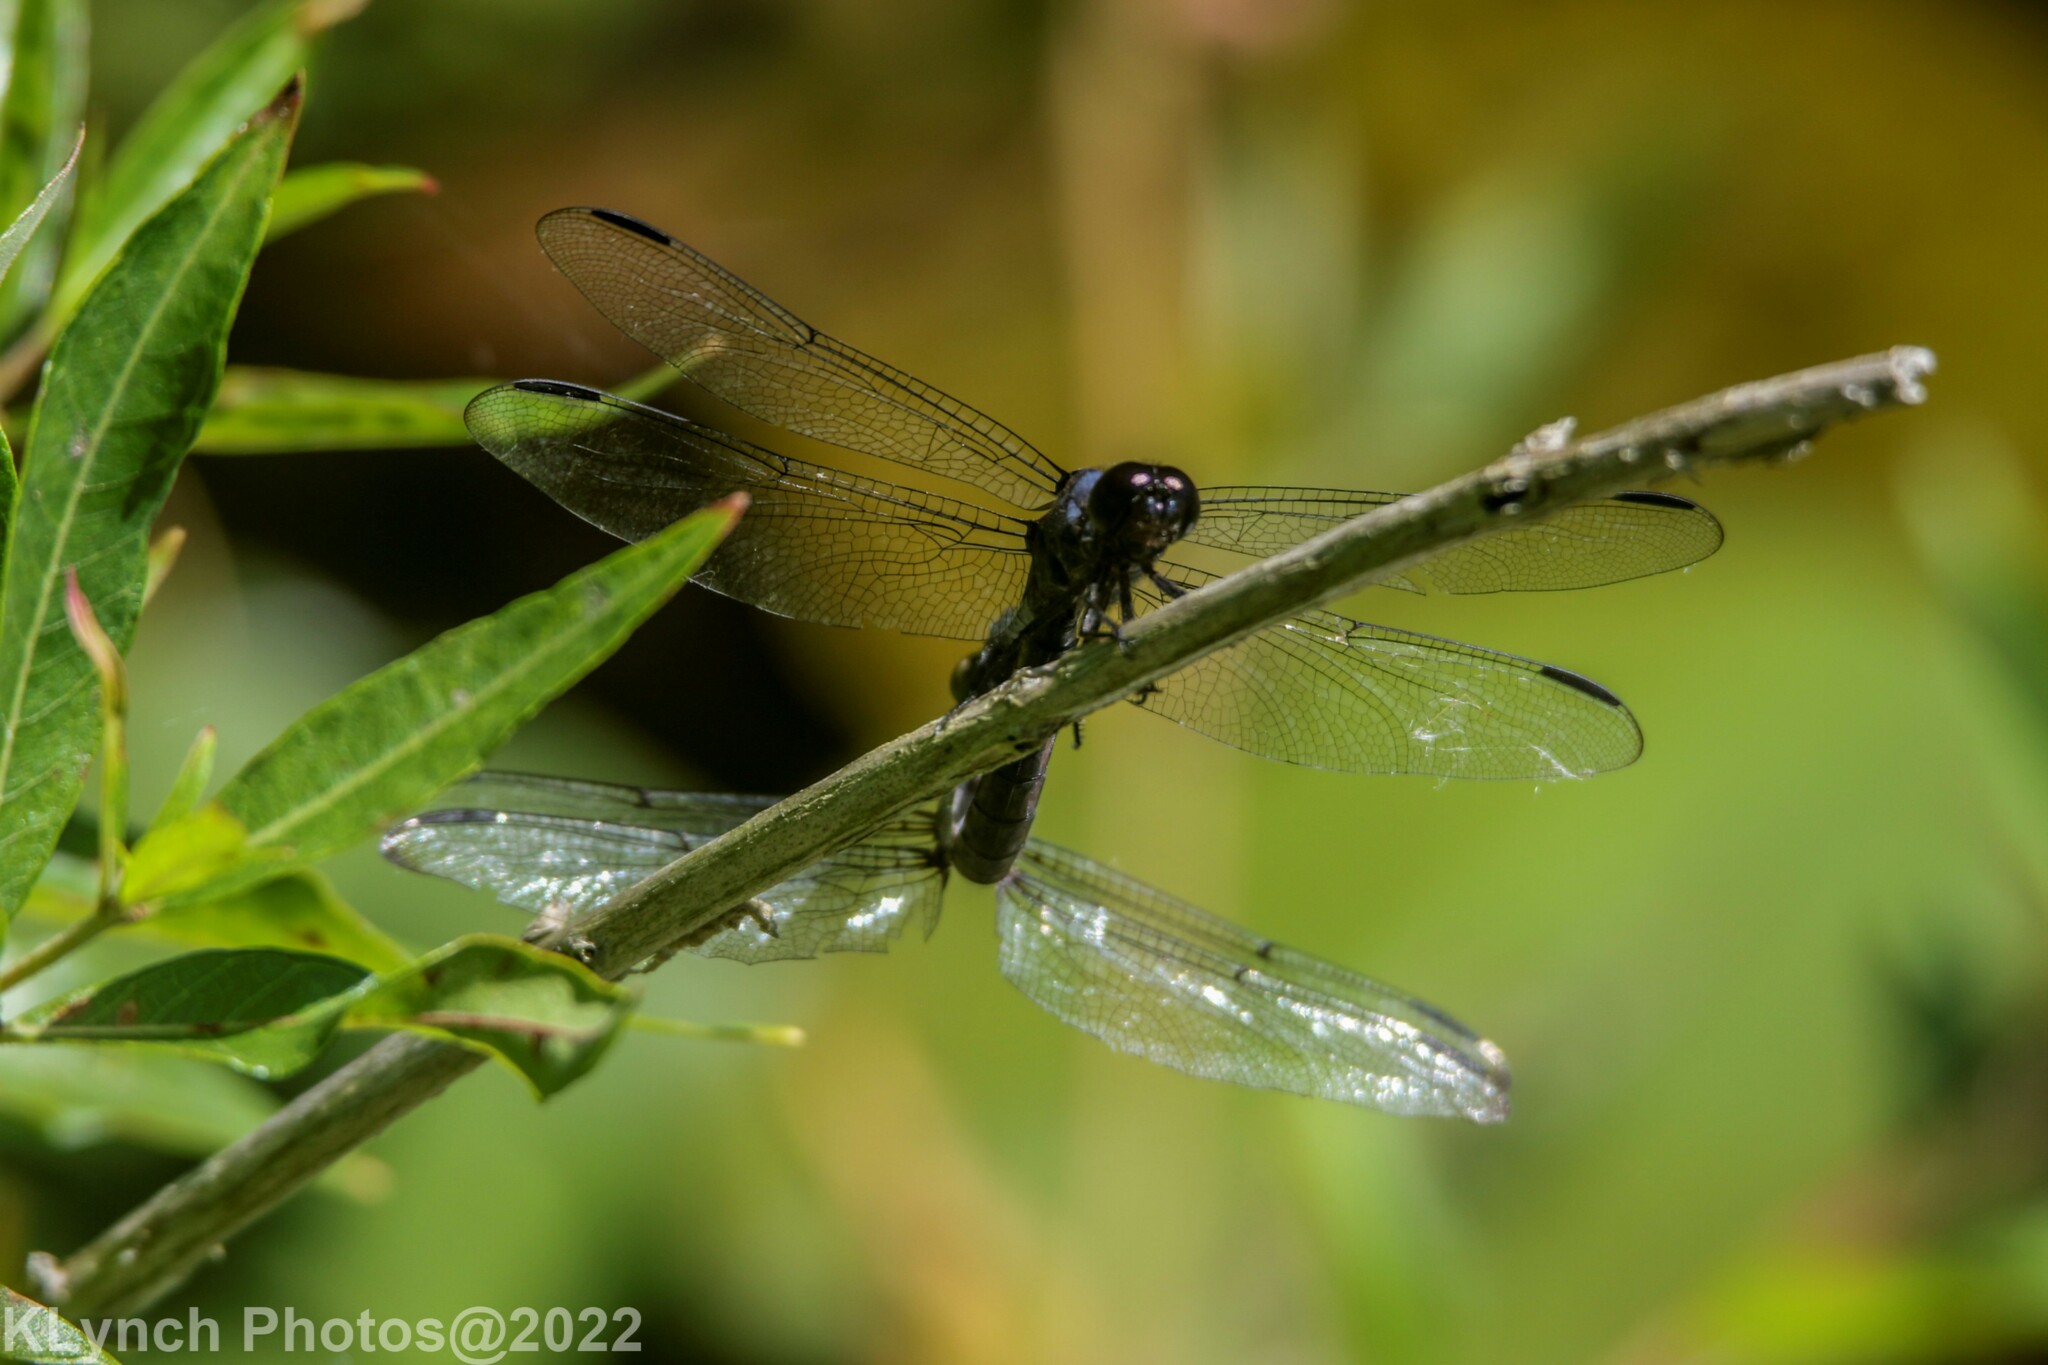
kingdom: Animalia
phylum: Arthropoda
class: Insecta
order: Odonata
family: Libellulidae
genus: Libellula
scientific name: Libellula incesta
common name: Slaty skimmer
